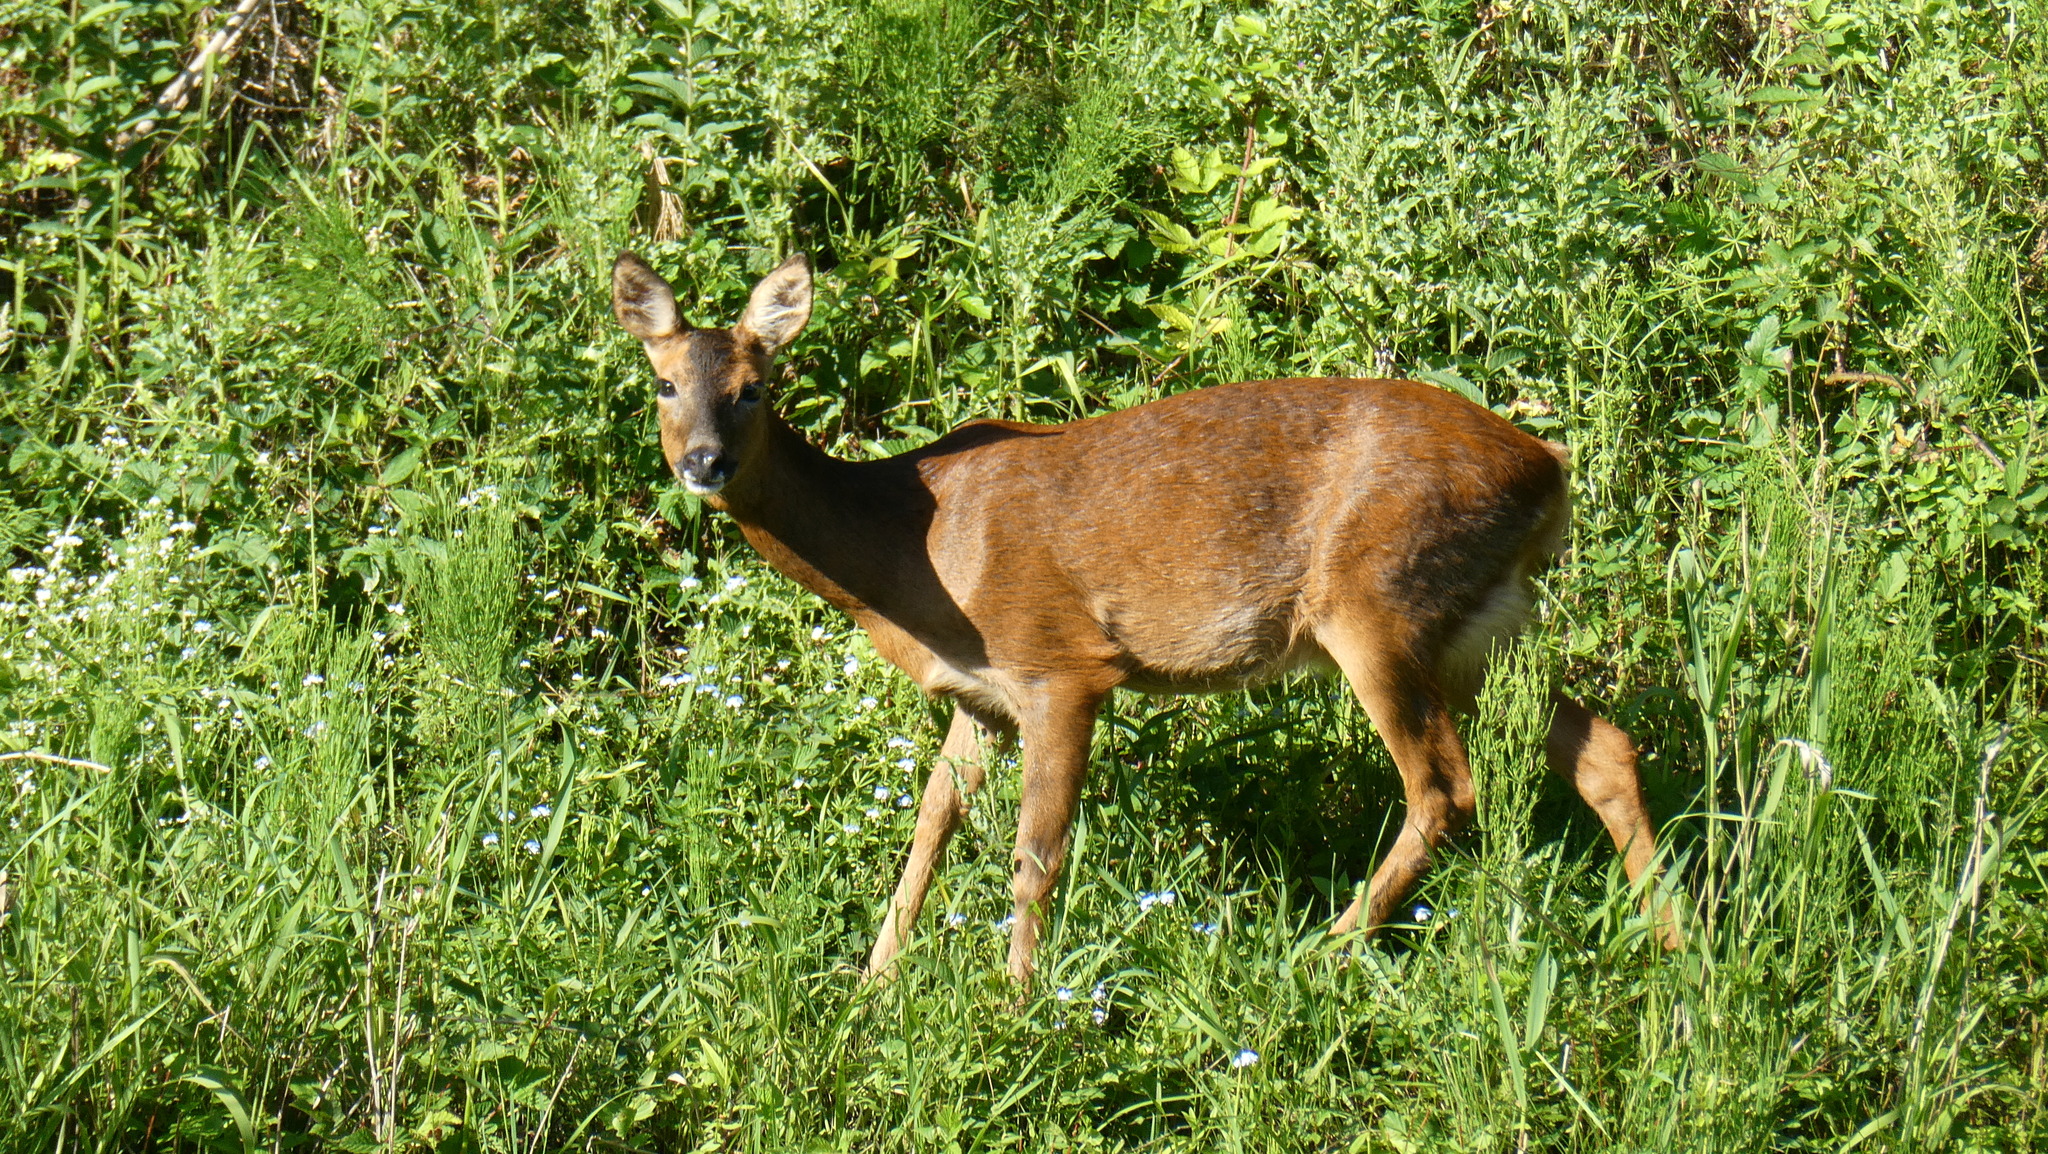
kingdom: Animalia
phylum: Chordata
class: Mammalia
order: Artiodactyla
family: Cervidae
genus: Capreolus
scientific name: Capreolus capreolus
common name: Western roe deer
